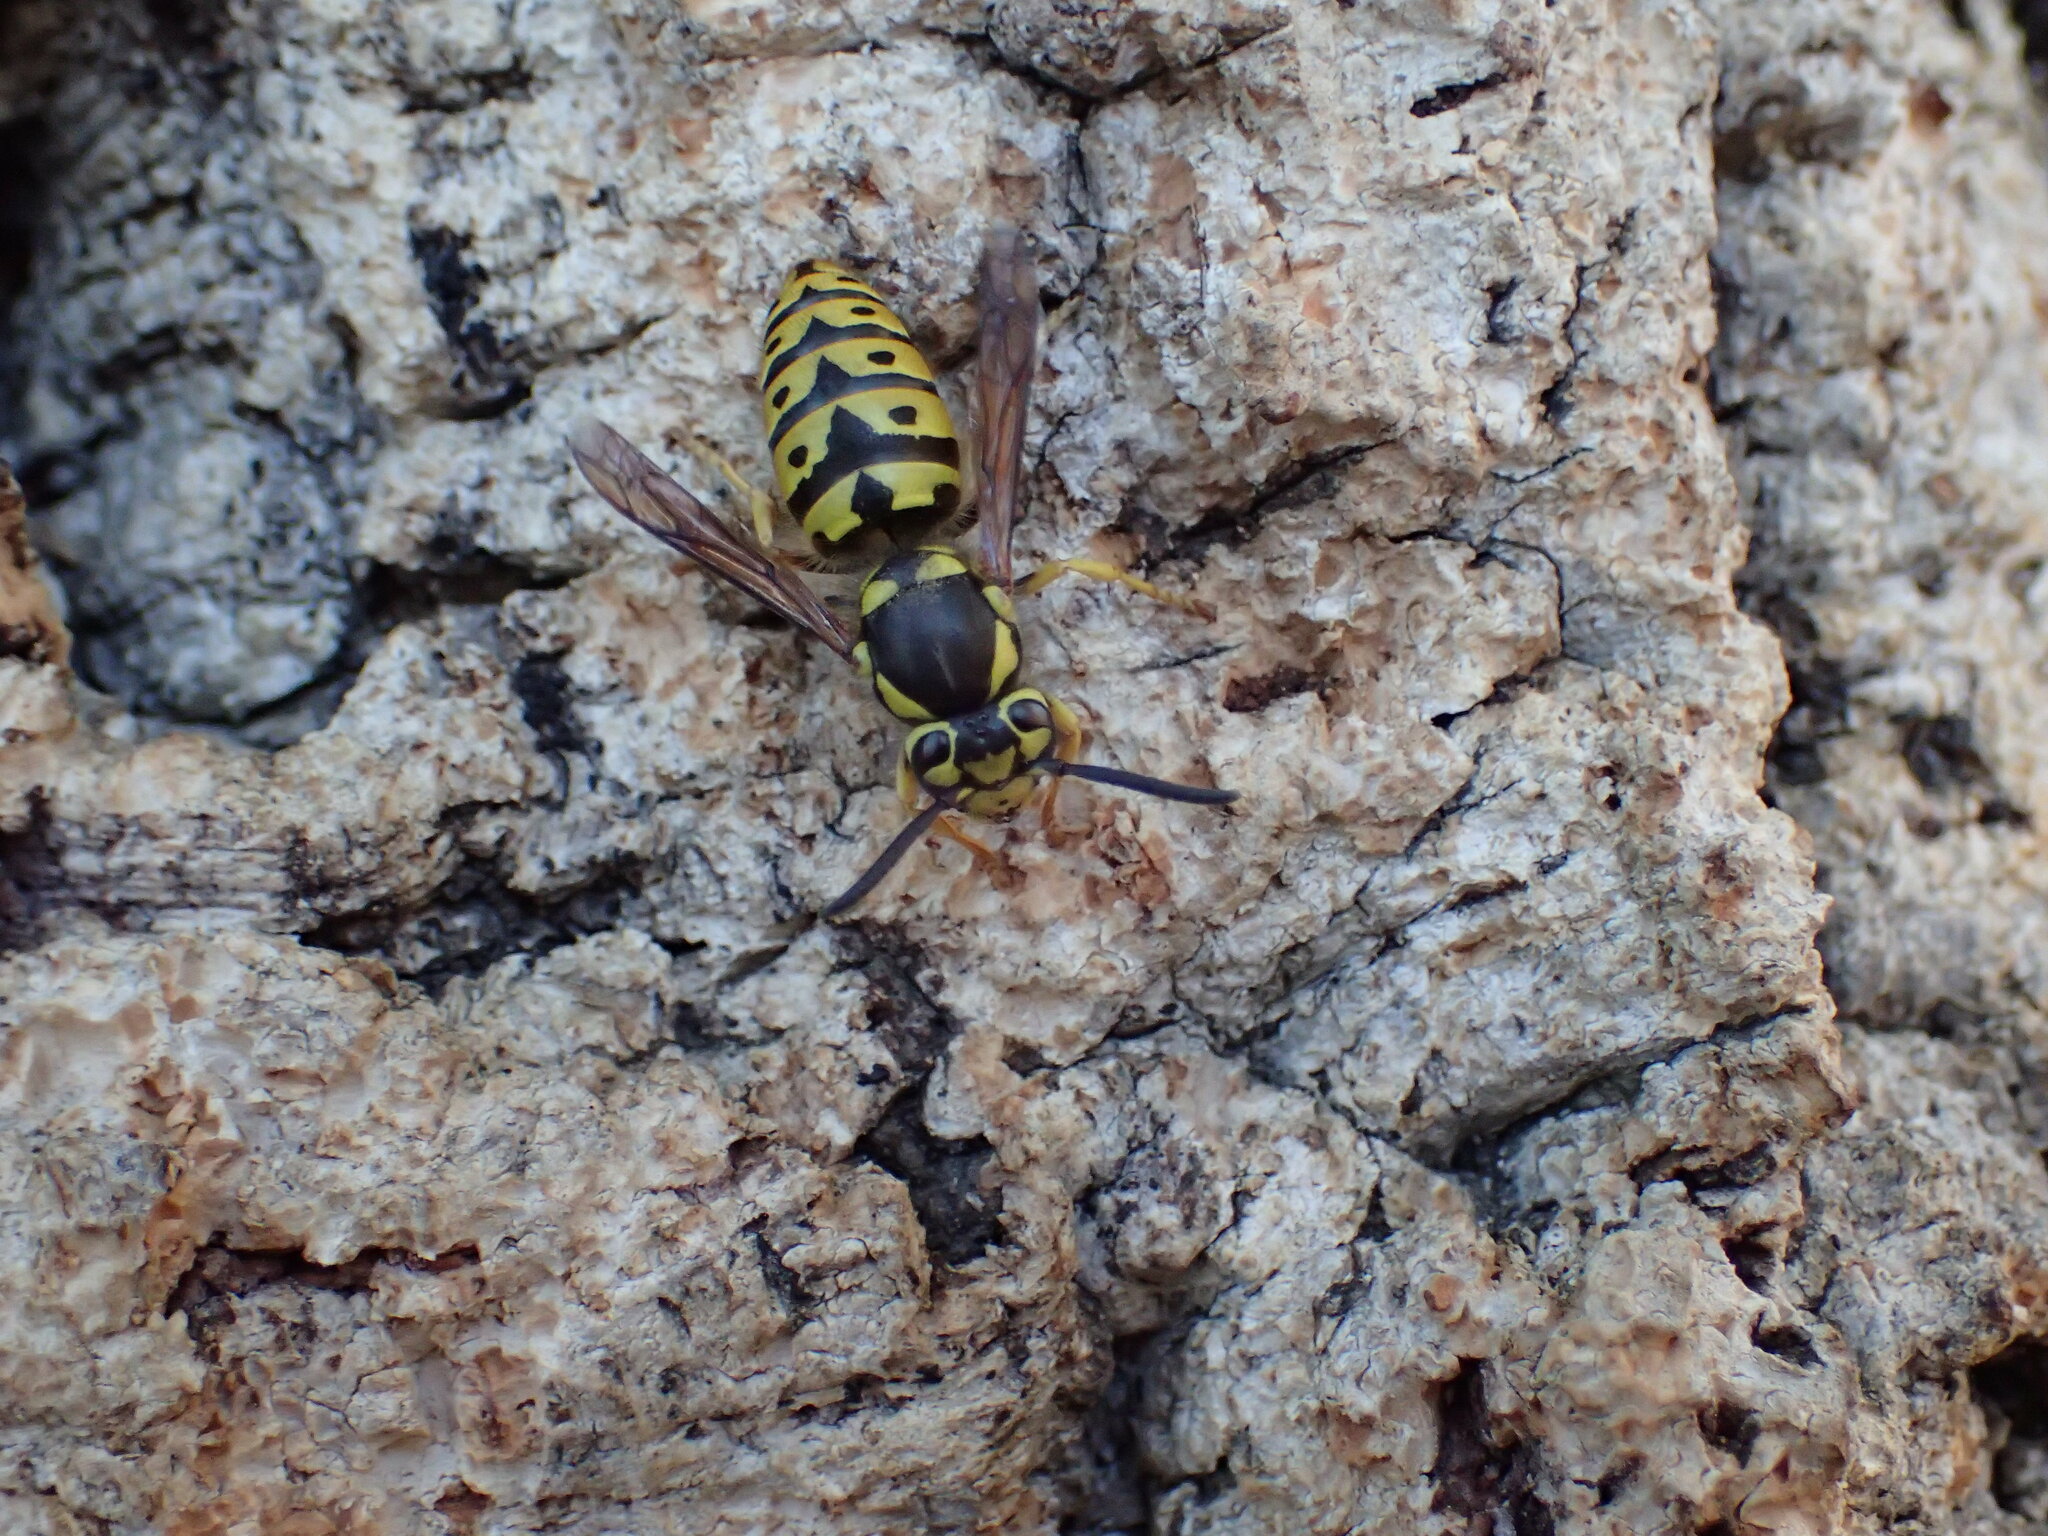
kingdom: Animalia
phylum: Arthropoda
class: Insecta
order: Hymenoptera
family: Vespidae
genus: Vespula
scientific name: Vespula pensylvanica
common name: Western yellowjacket
